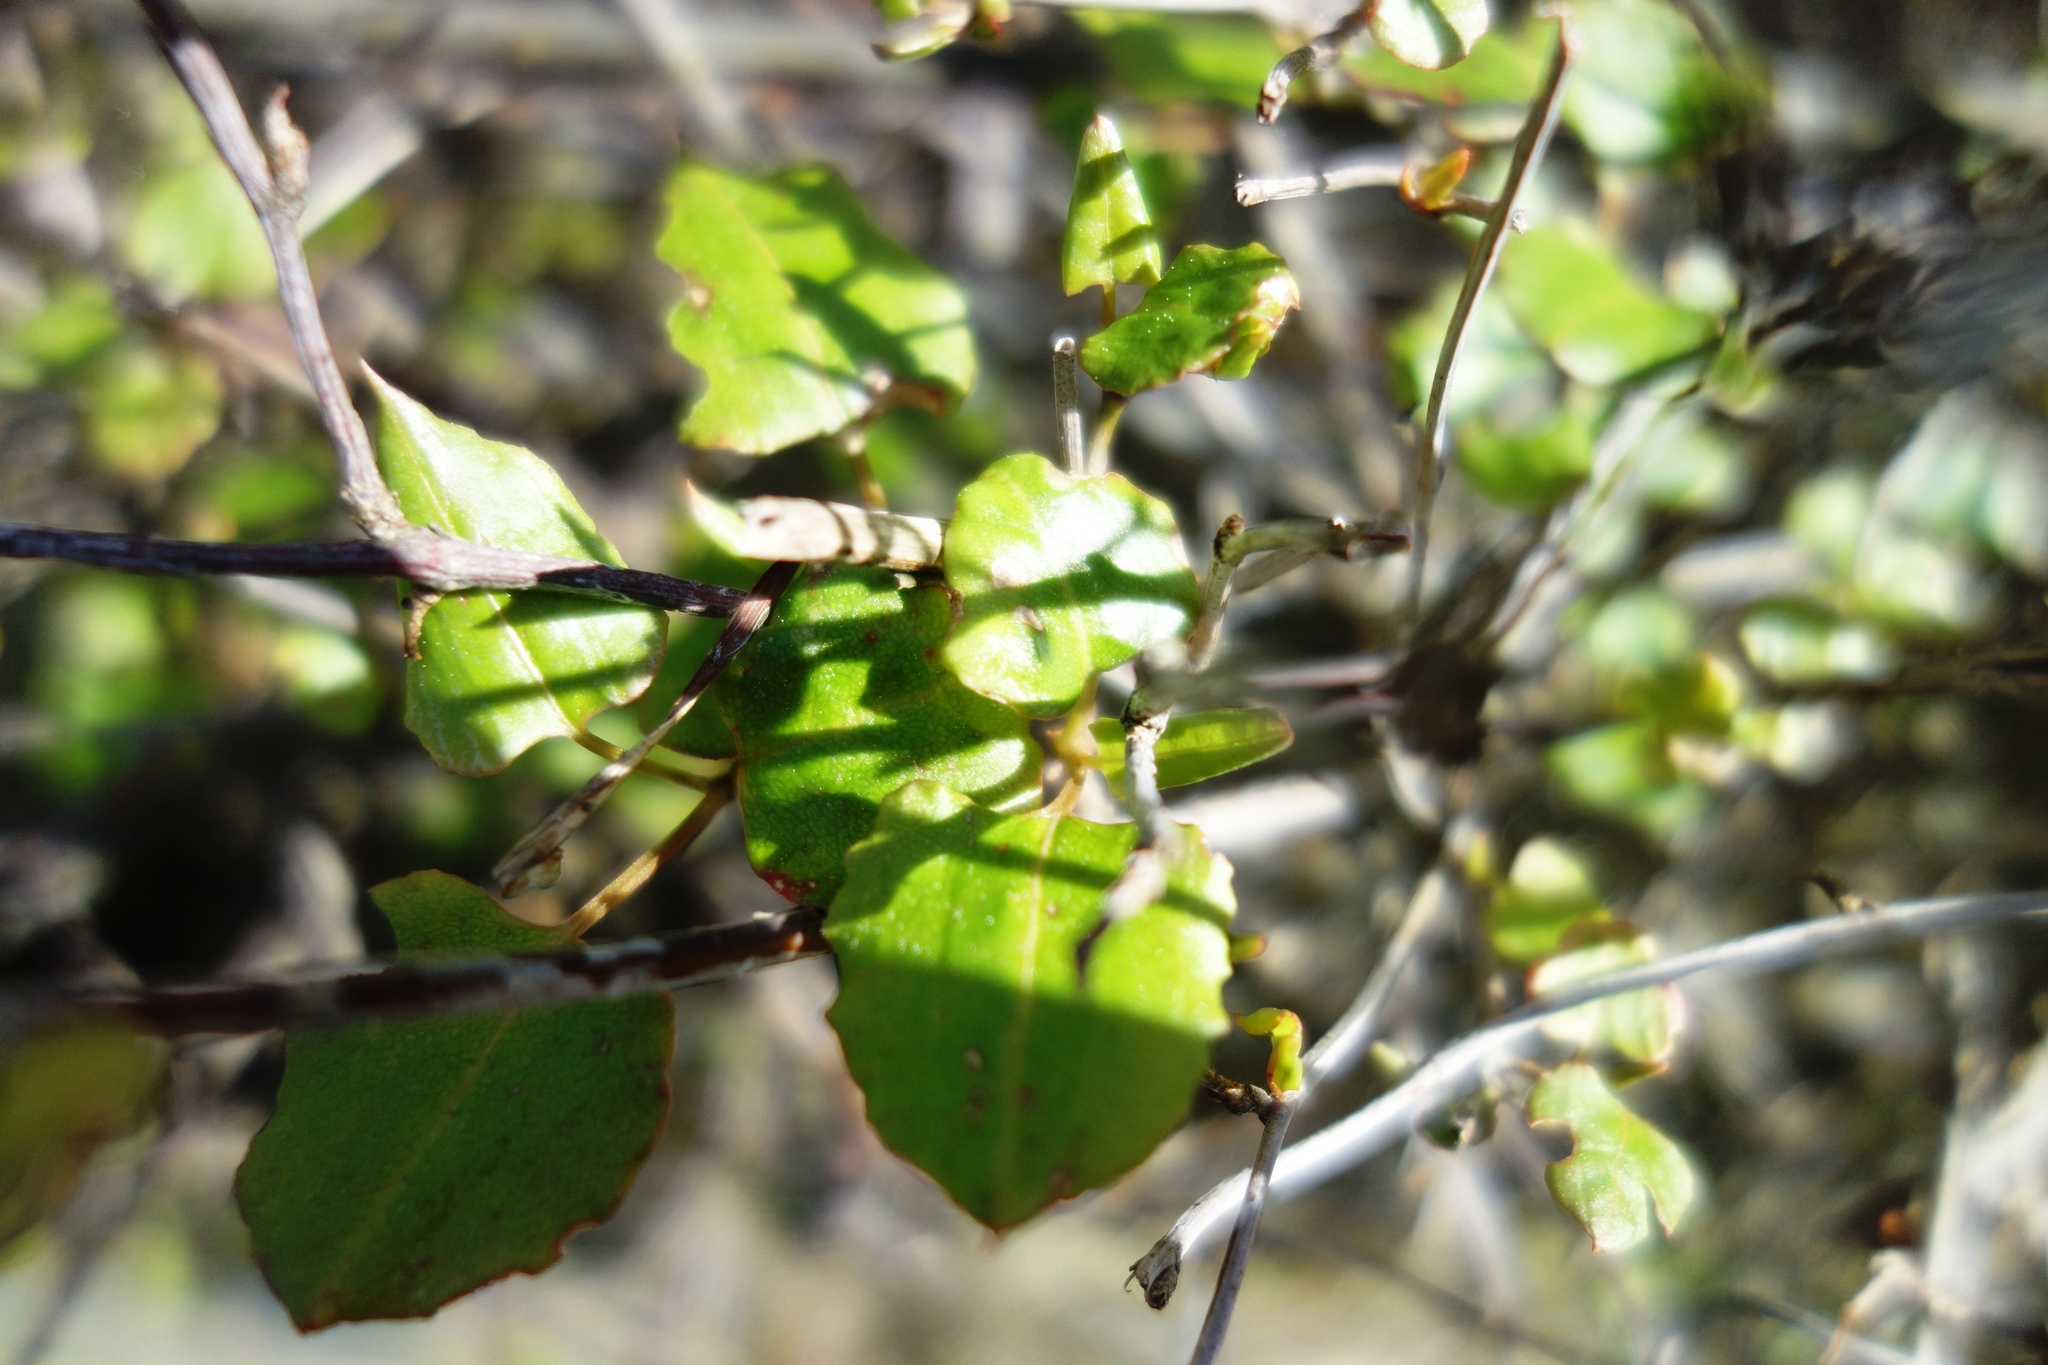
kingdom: Plantae
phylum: Tracheophyta
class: Magnoliopsida
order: Caryophyllales
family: Polygonaceae
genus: Muehlenbeckia
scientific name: Muehlenbeckia australis
